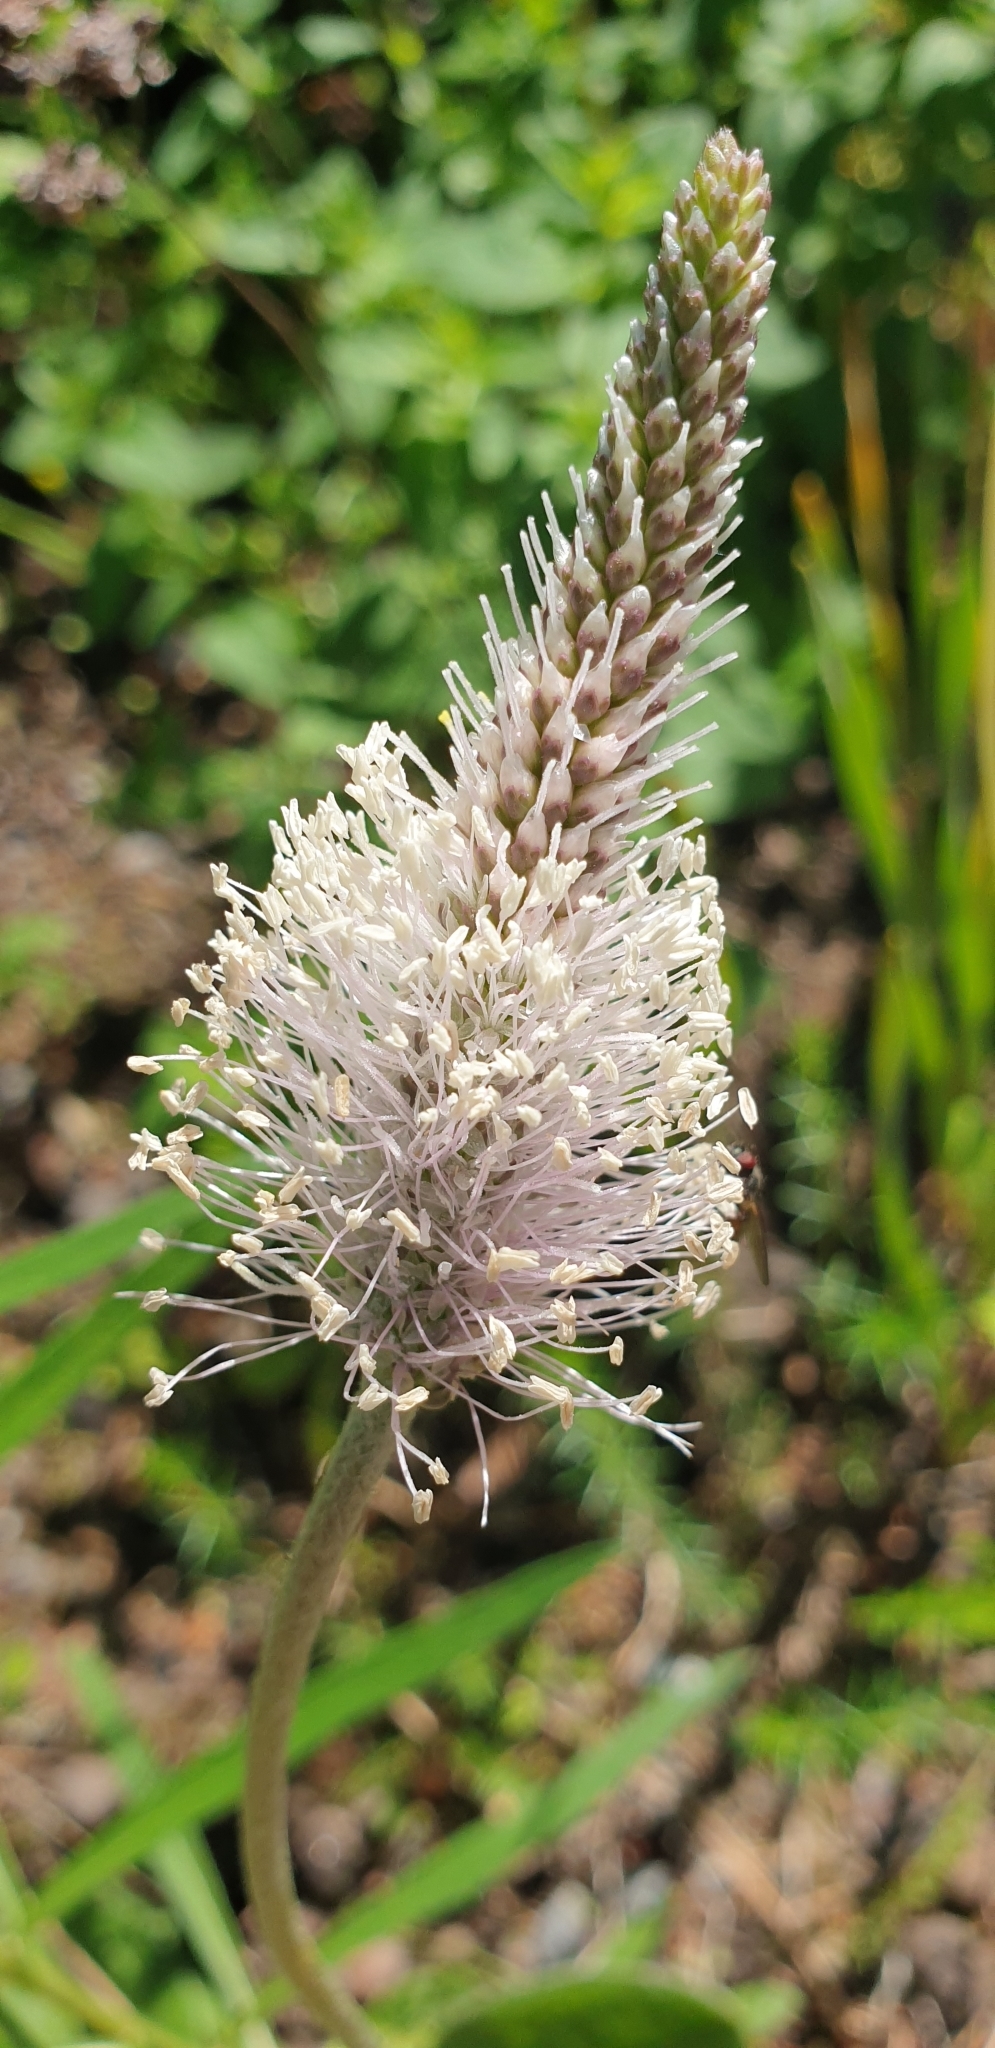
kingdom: Plantae
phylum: Tracheophyta
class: Magnoliopsida
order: Lamiales
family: Plantaginaceae
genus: Plantago
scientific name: Plantago media
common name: Hoary plantain
